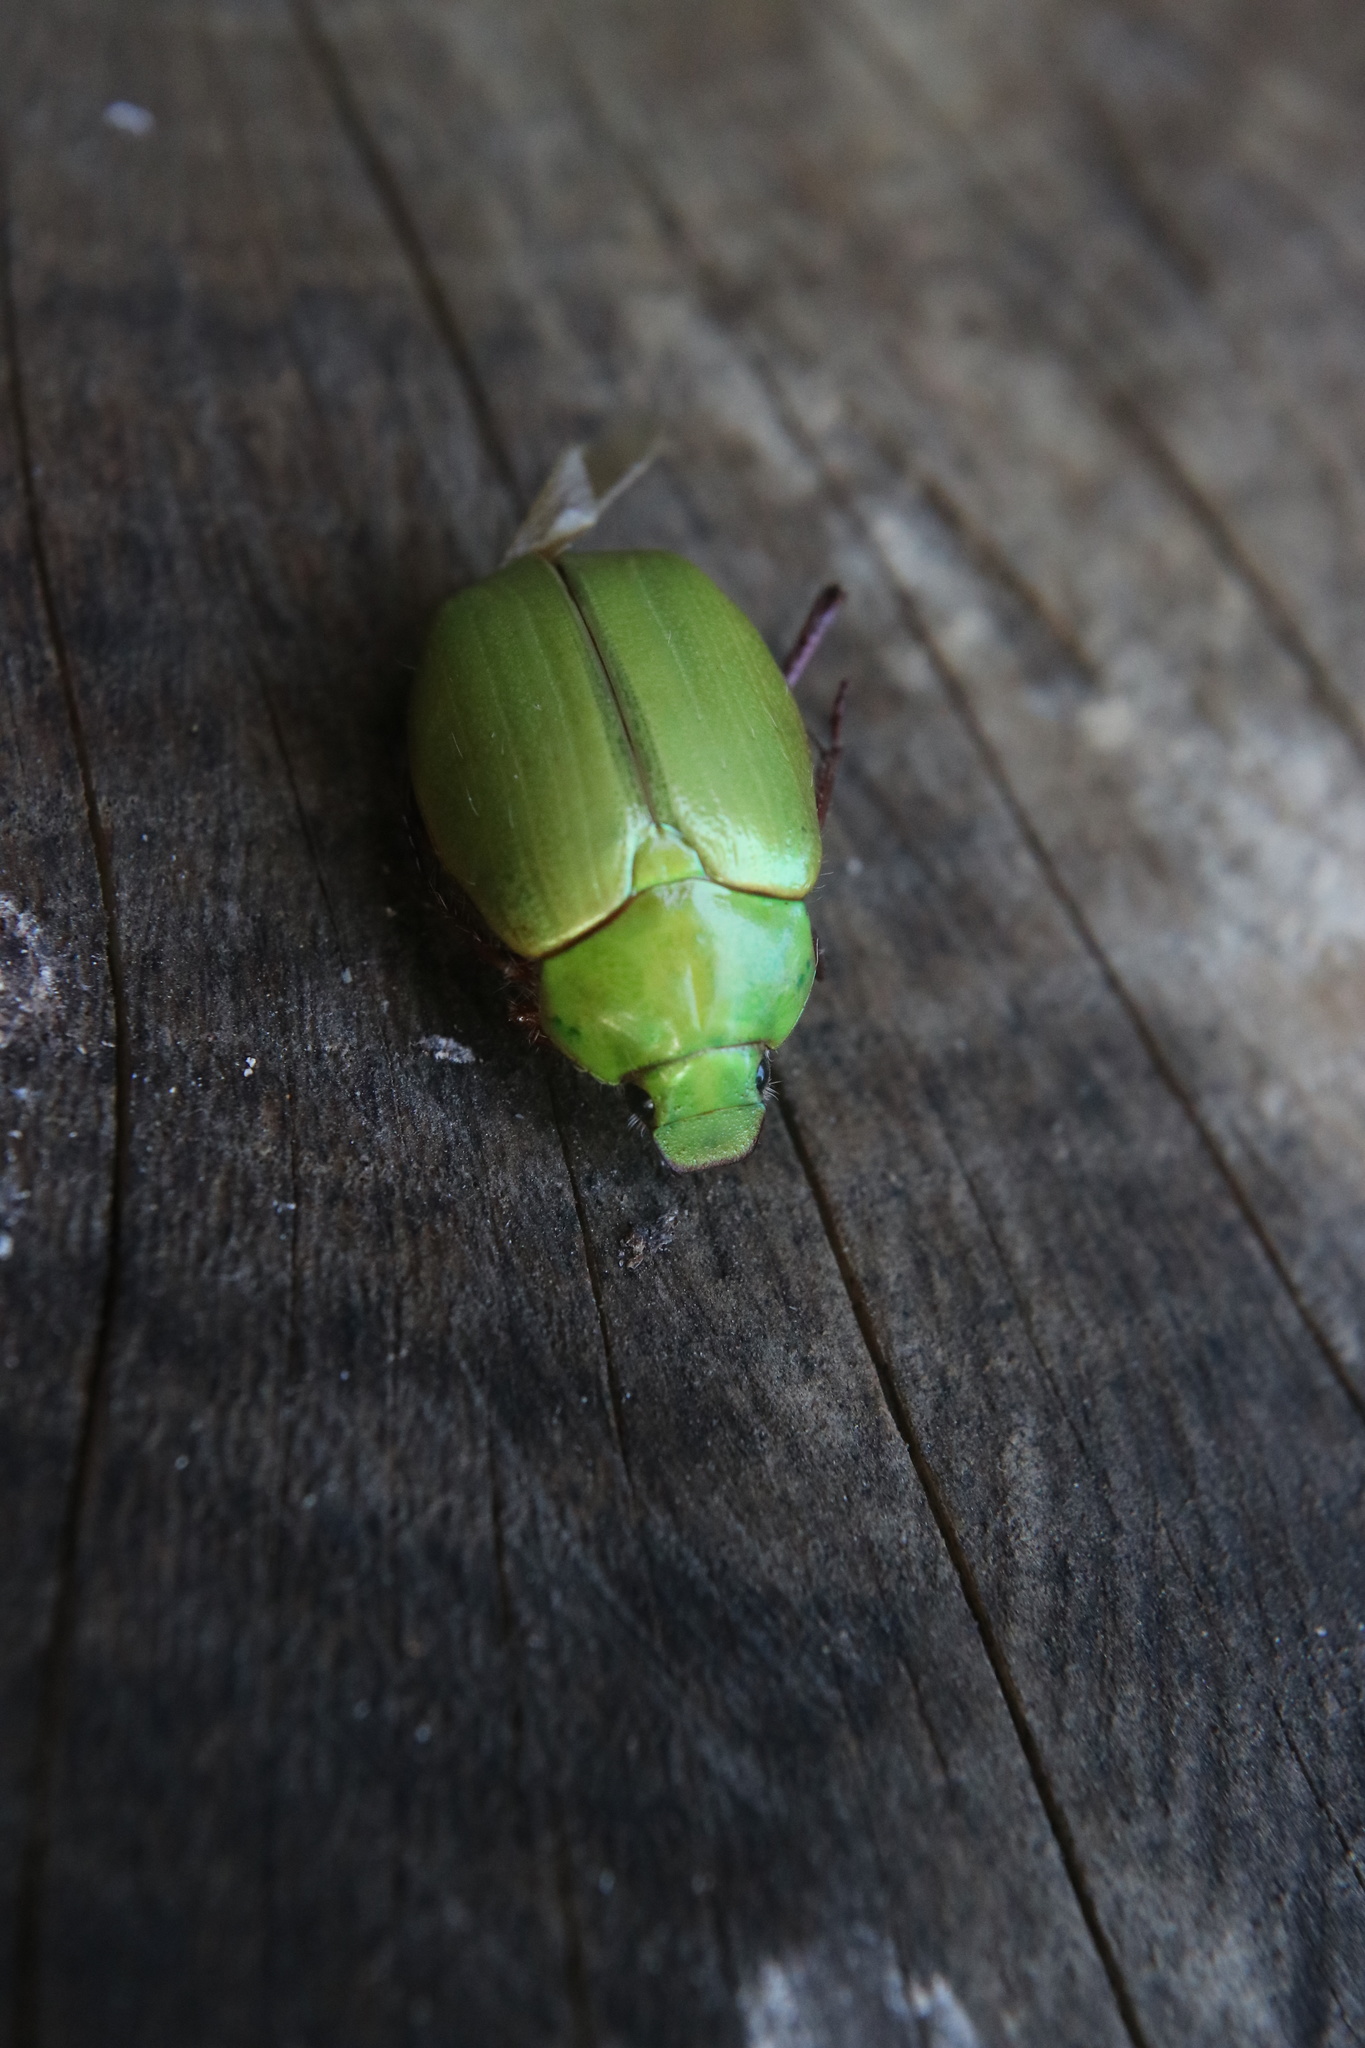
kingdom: Animalia
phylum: Arthropoda
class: Insecta
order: Coleoptera
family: Scarabaeidae
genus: Modialis
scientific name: Modialis prasinella
